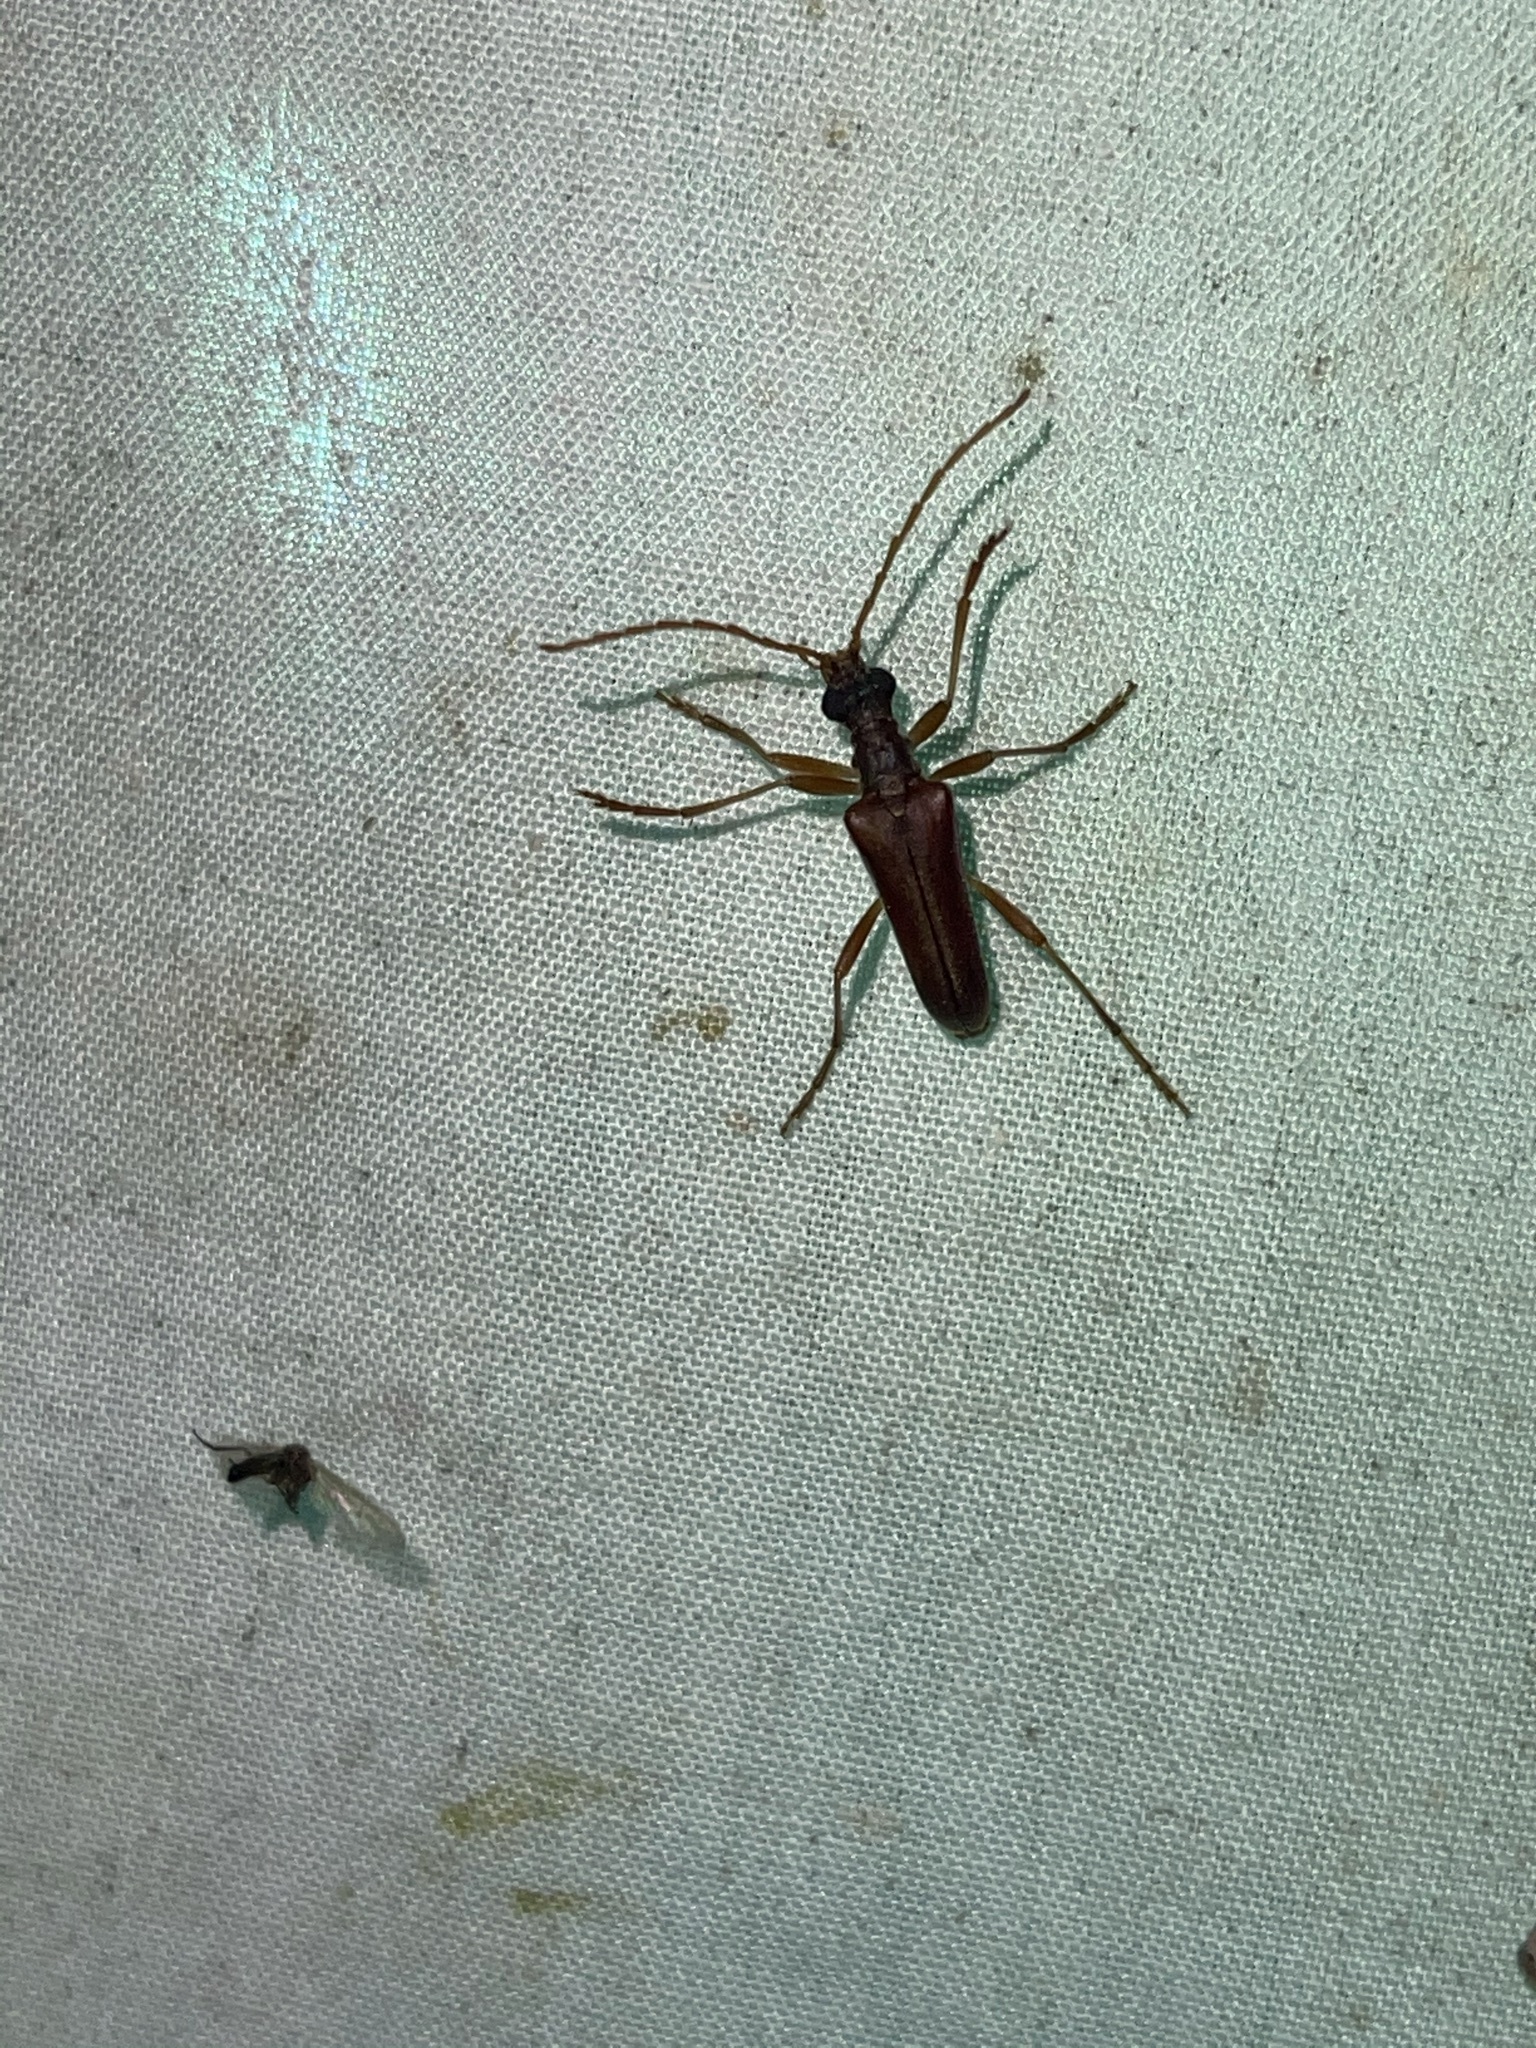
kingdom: Animalia
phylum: Arthropoda
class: Insecta
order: Coleoptera
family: Cerambycidae
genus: Stenocorus
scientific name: Stenocorus cinnamopterus
